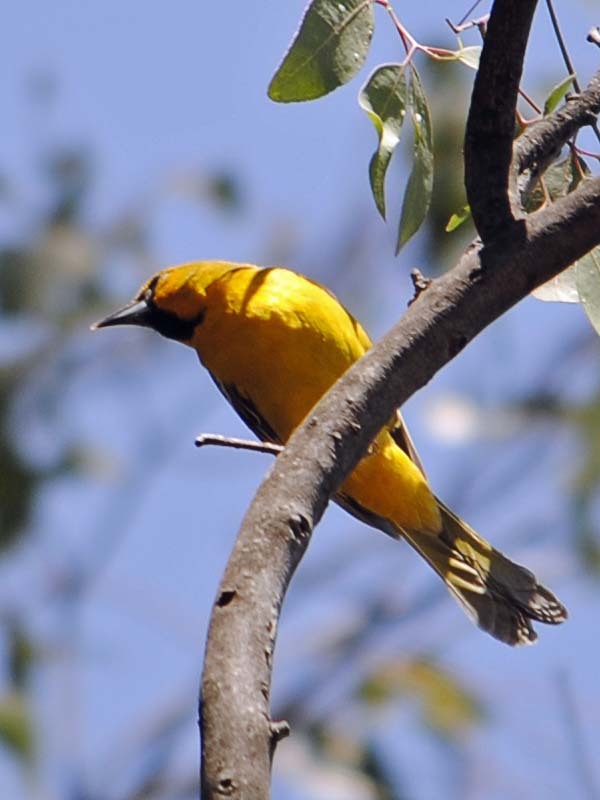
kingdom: Animalia
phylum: Chordata
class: Aves
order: Passeriformes
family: Icteridae
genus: Icterus
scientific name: Icterus pustulatus
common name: Streak-backed oriole
